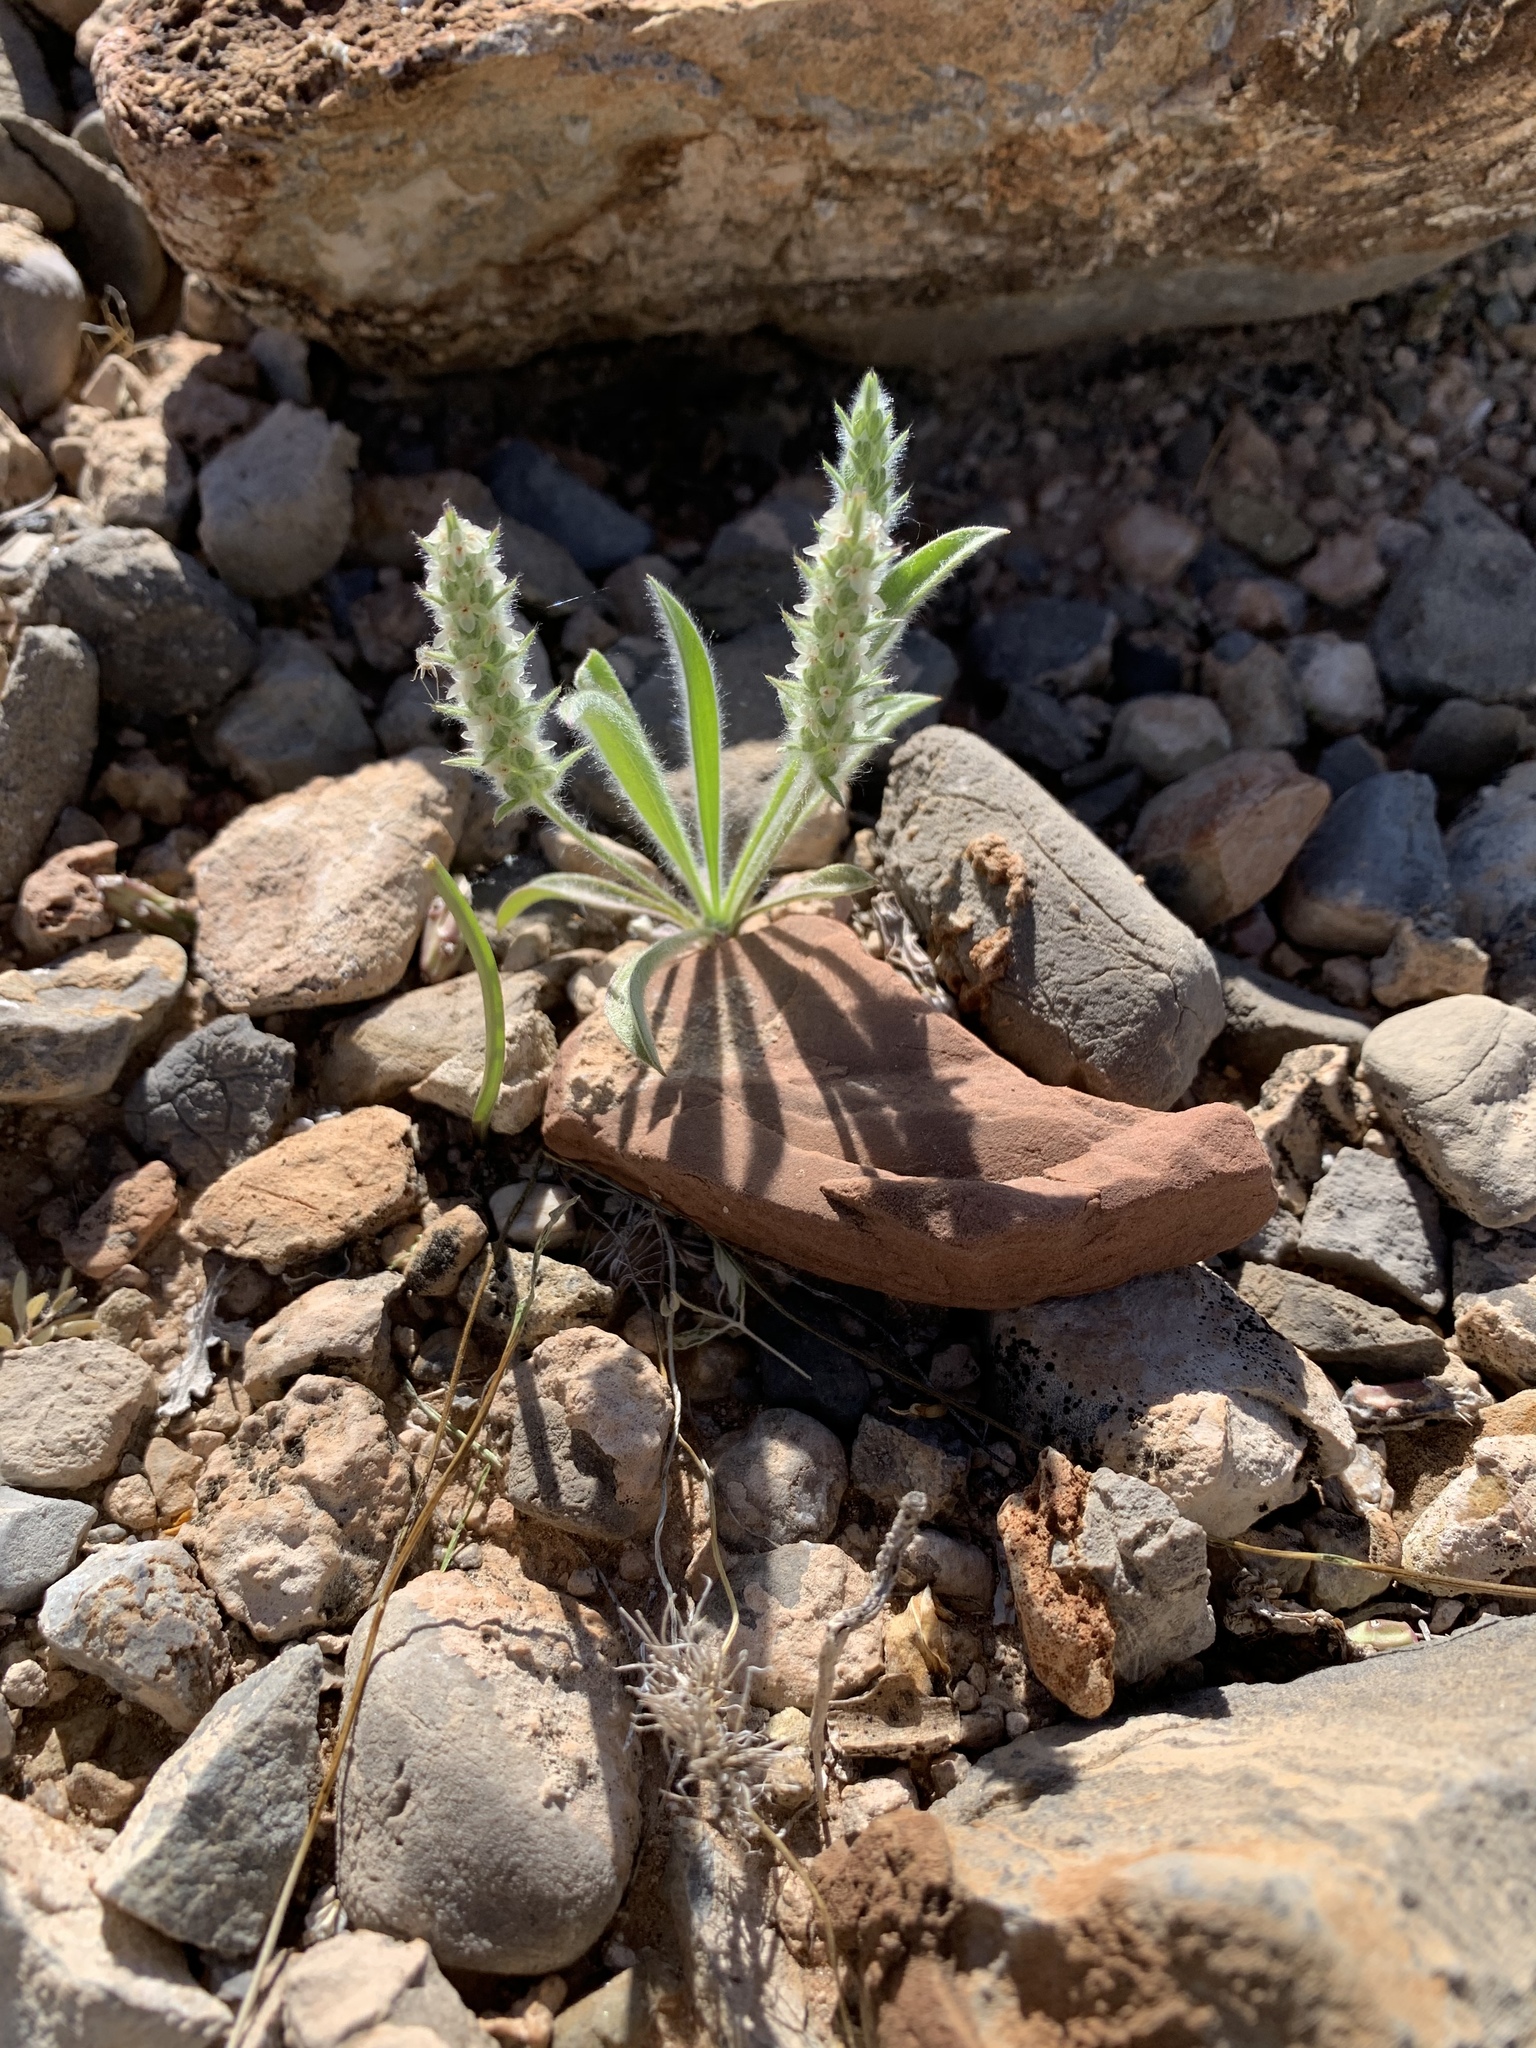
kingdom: Plantae
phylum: Tracheophyta
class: Magnoliopsida
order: Lamiales
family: Plantaginaceae
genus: Plantago
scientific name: Plantago patagonica
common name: Patagonia indian-wheat
